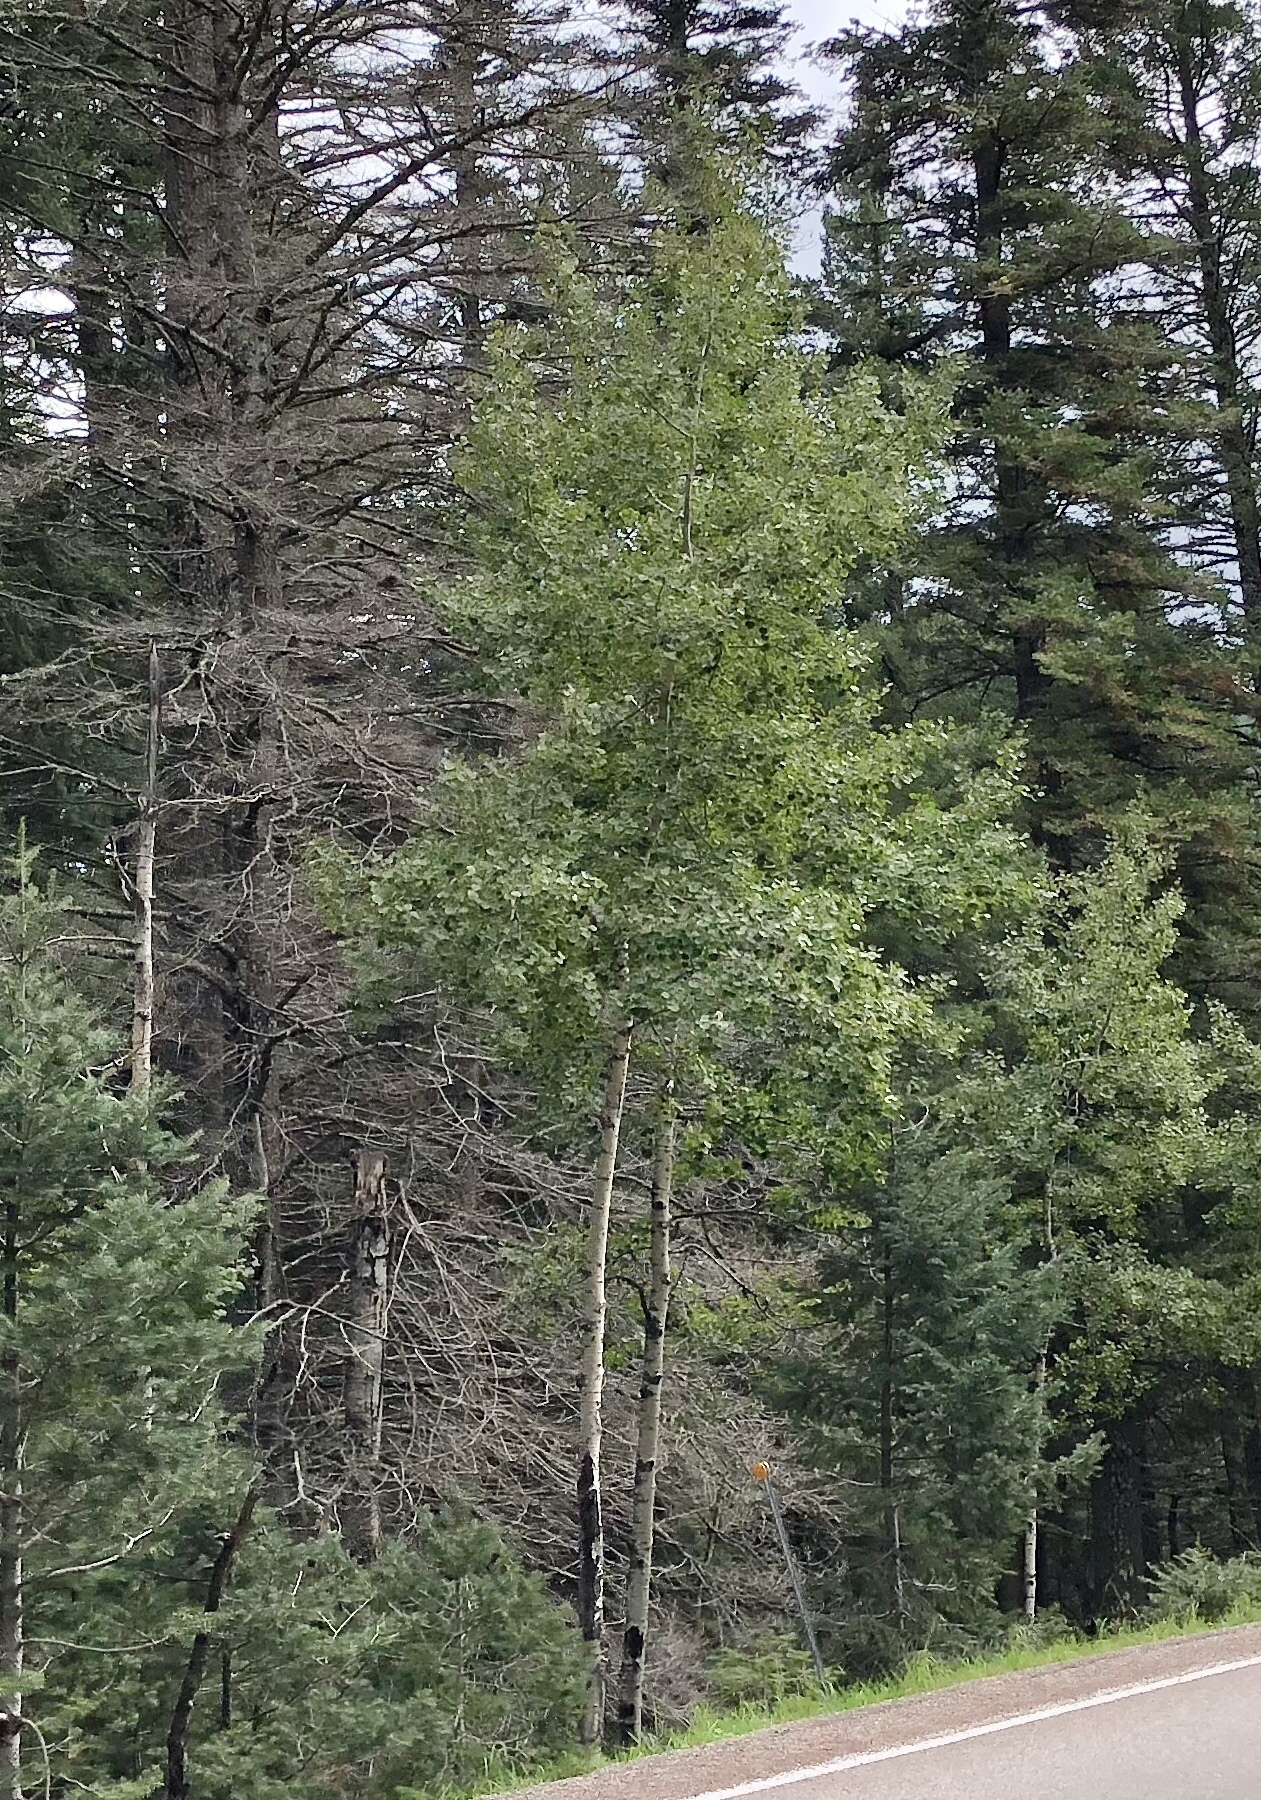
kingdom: Plantae
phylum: Tracheophyta
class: Magnoliopsida
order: Malpighiales
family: Salicaceae
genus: Populus
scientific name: Populus tremuloides
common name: Quaking aspen
